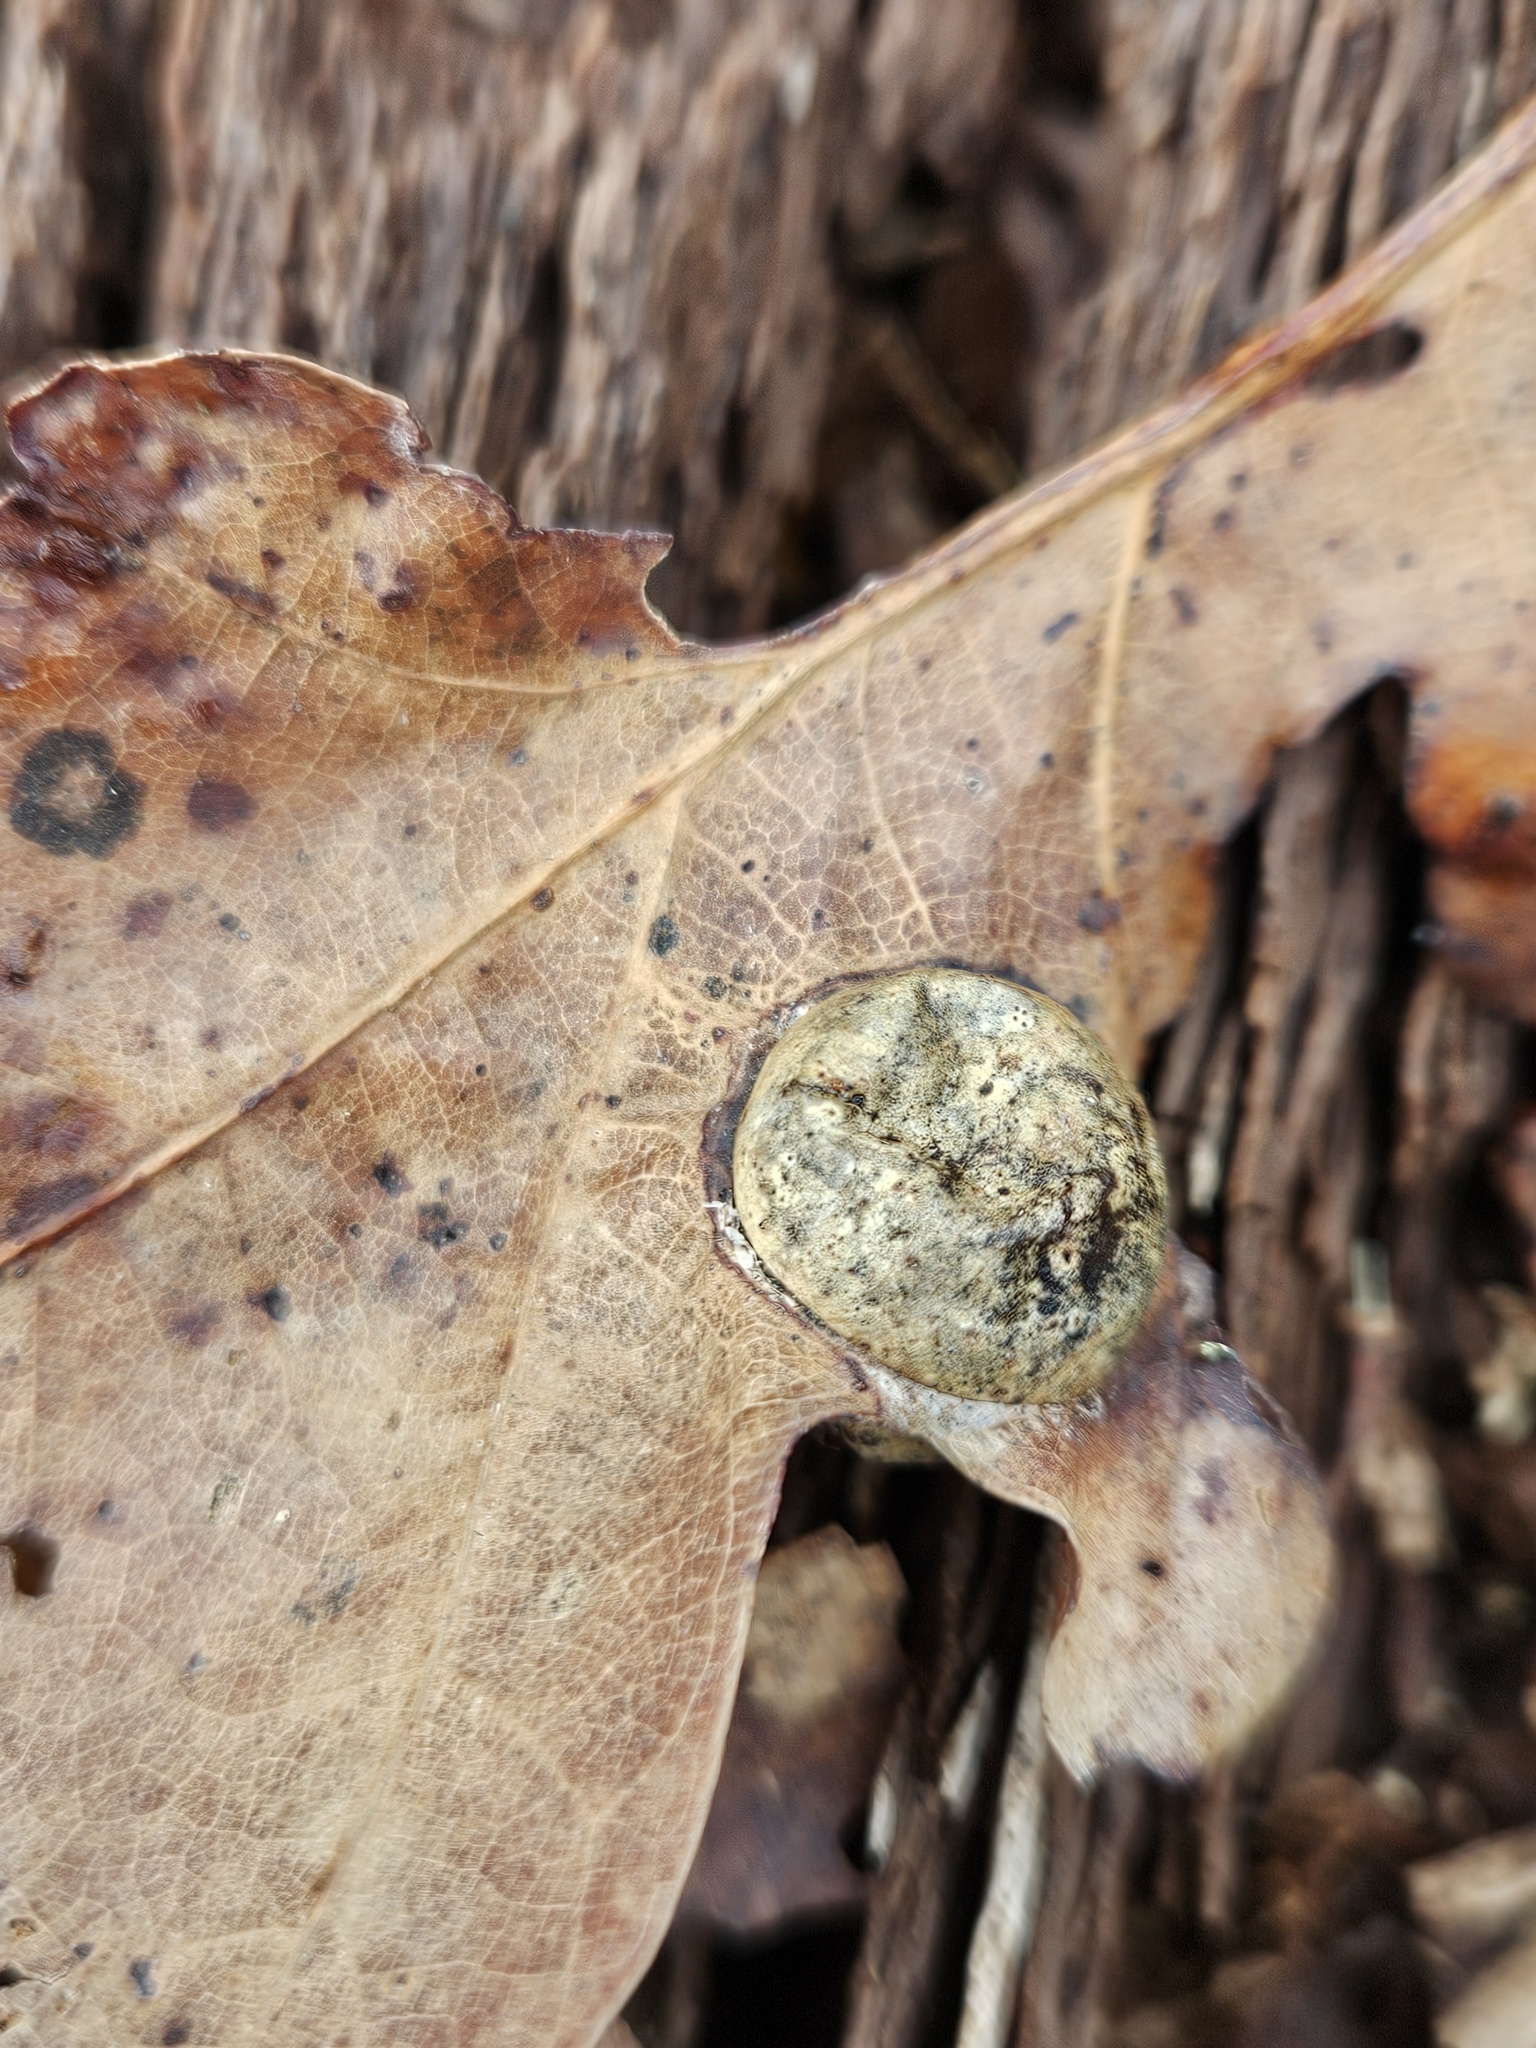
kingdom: Animalia
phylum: Arthropoda
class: Insecta
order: Hymenoptera
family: Cynipidae
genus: Amphibolips
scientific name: Amphibolips
